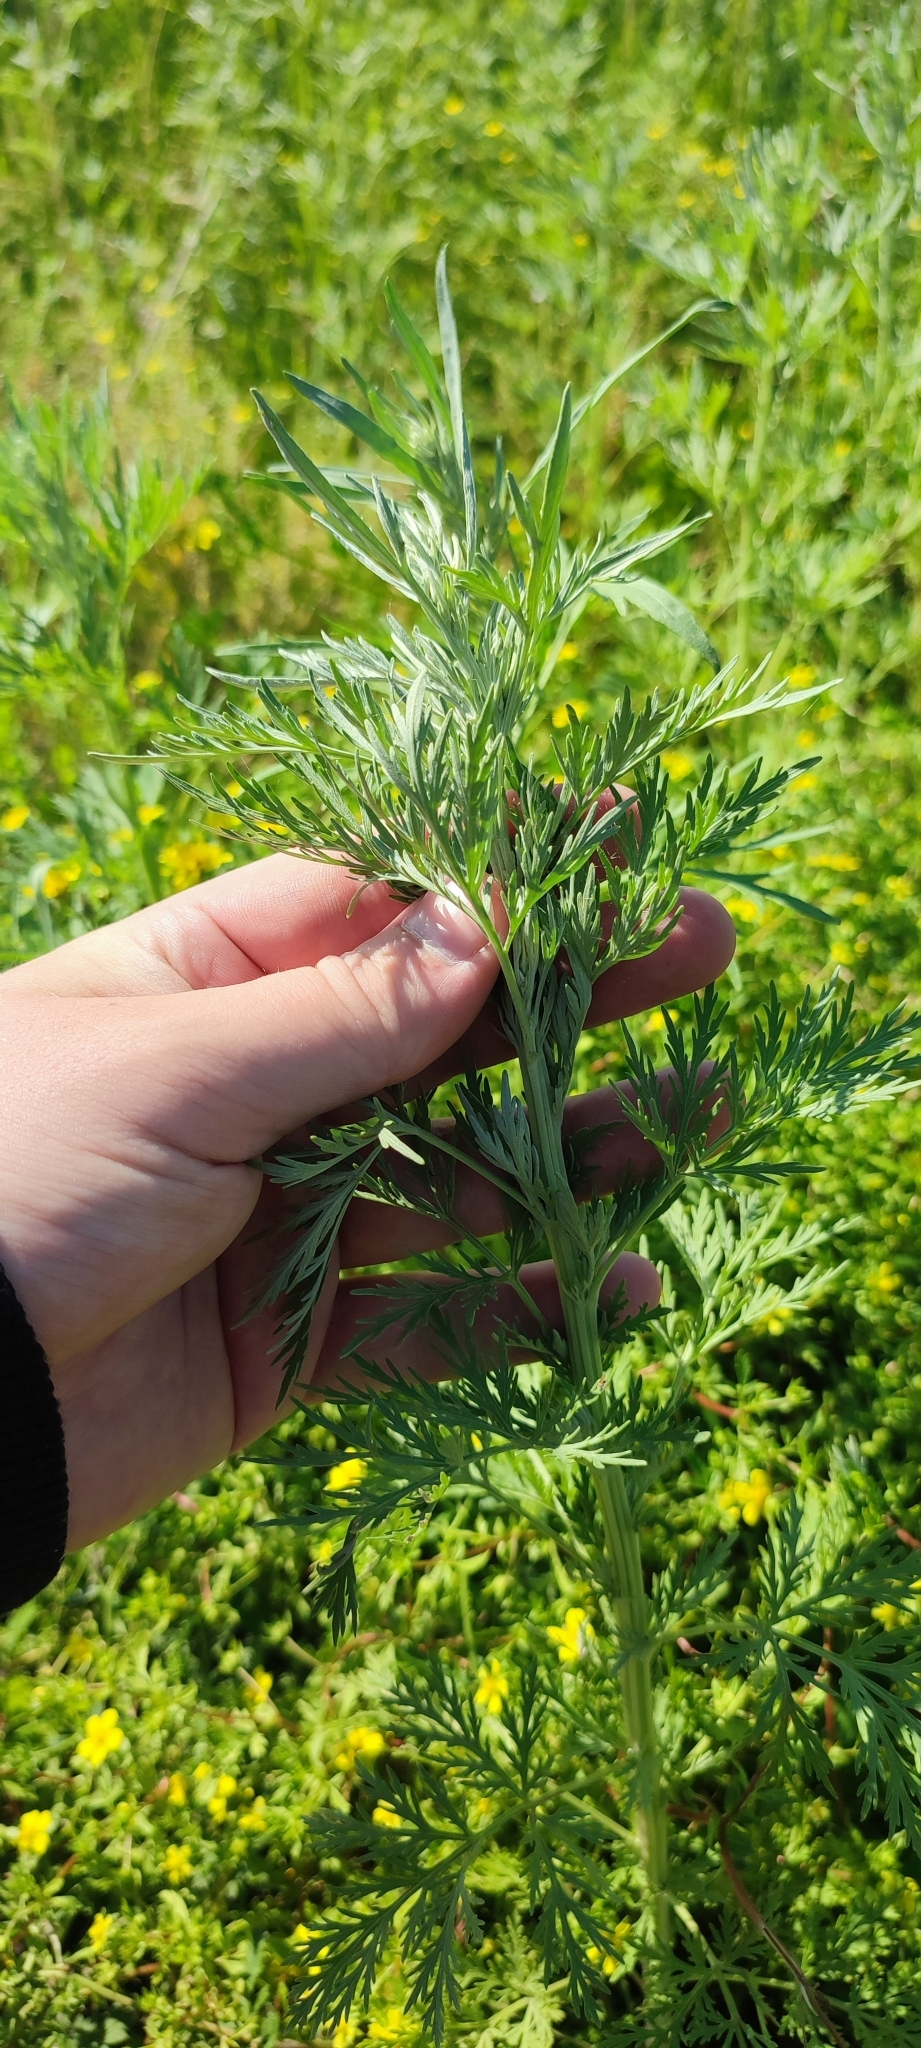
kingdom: Plantae
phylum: Tracheophyta
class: Magnoliopsida
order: Asterales
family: Asteraceae
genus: Artemisia
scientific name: Artemisia sieversiana
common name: Sieversian wormwood
